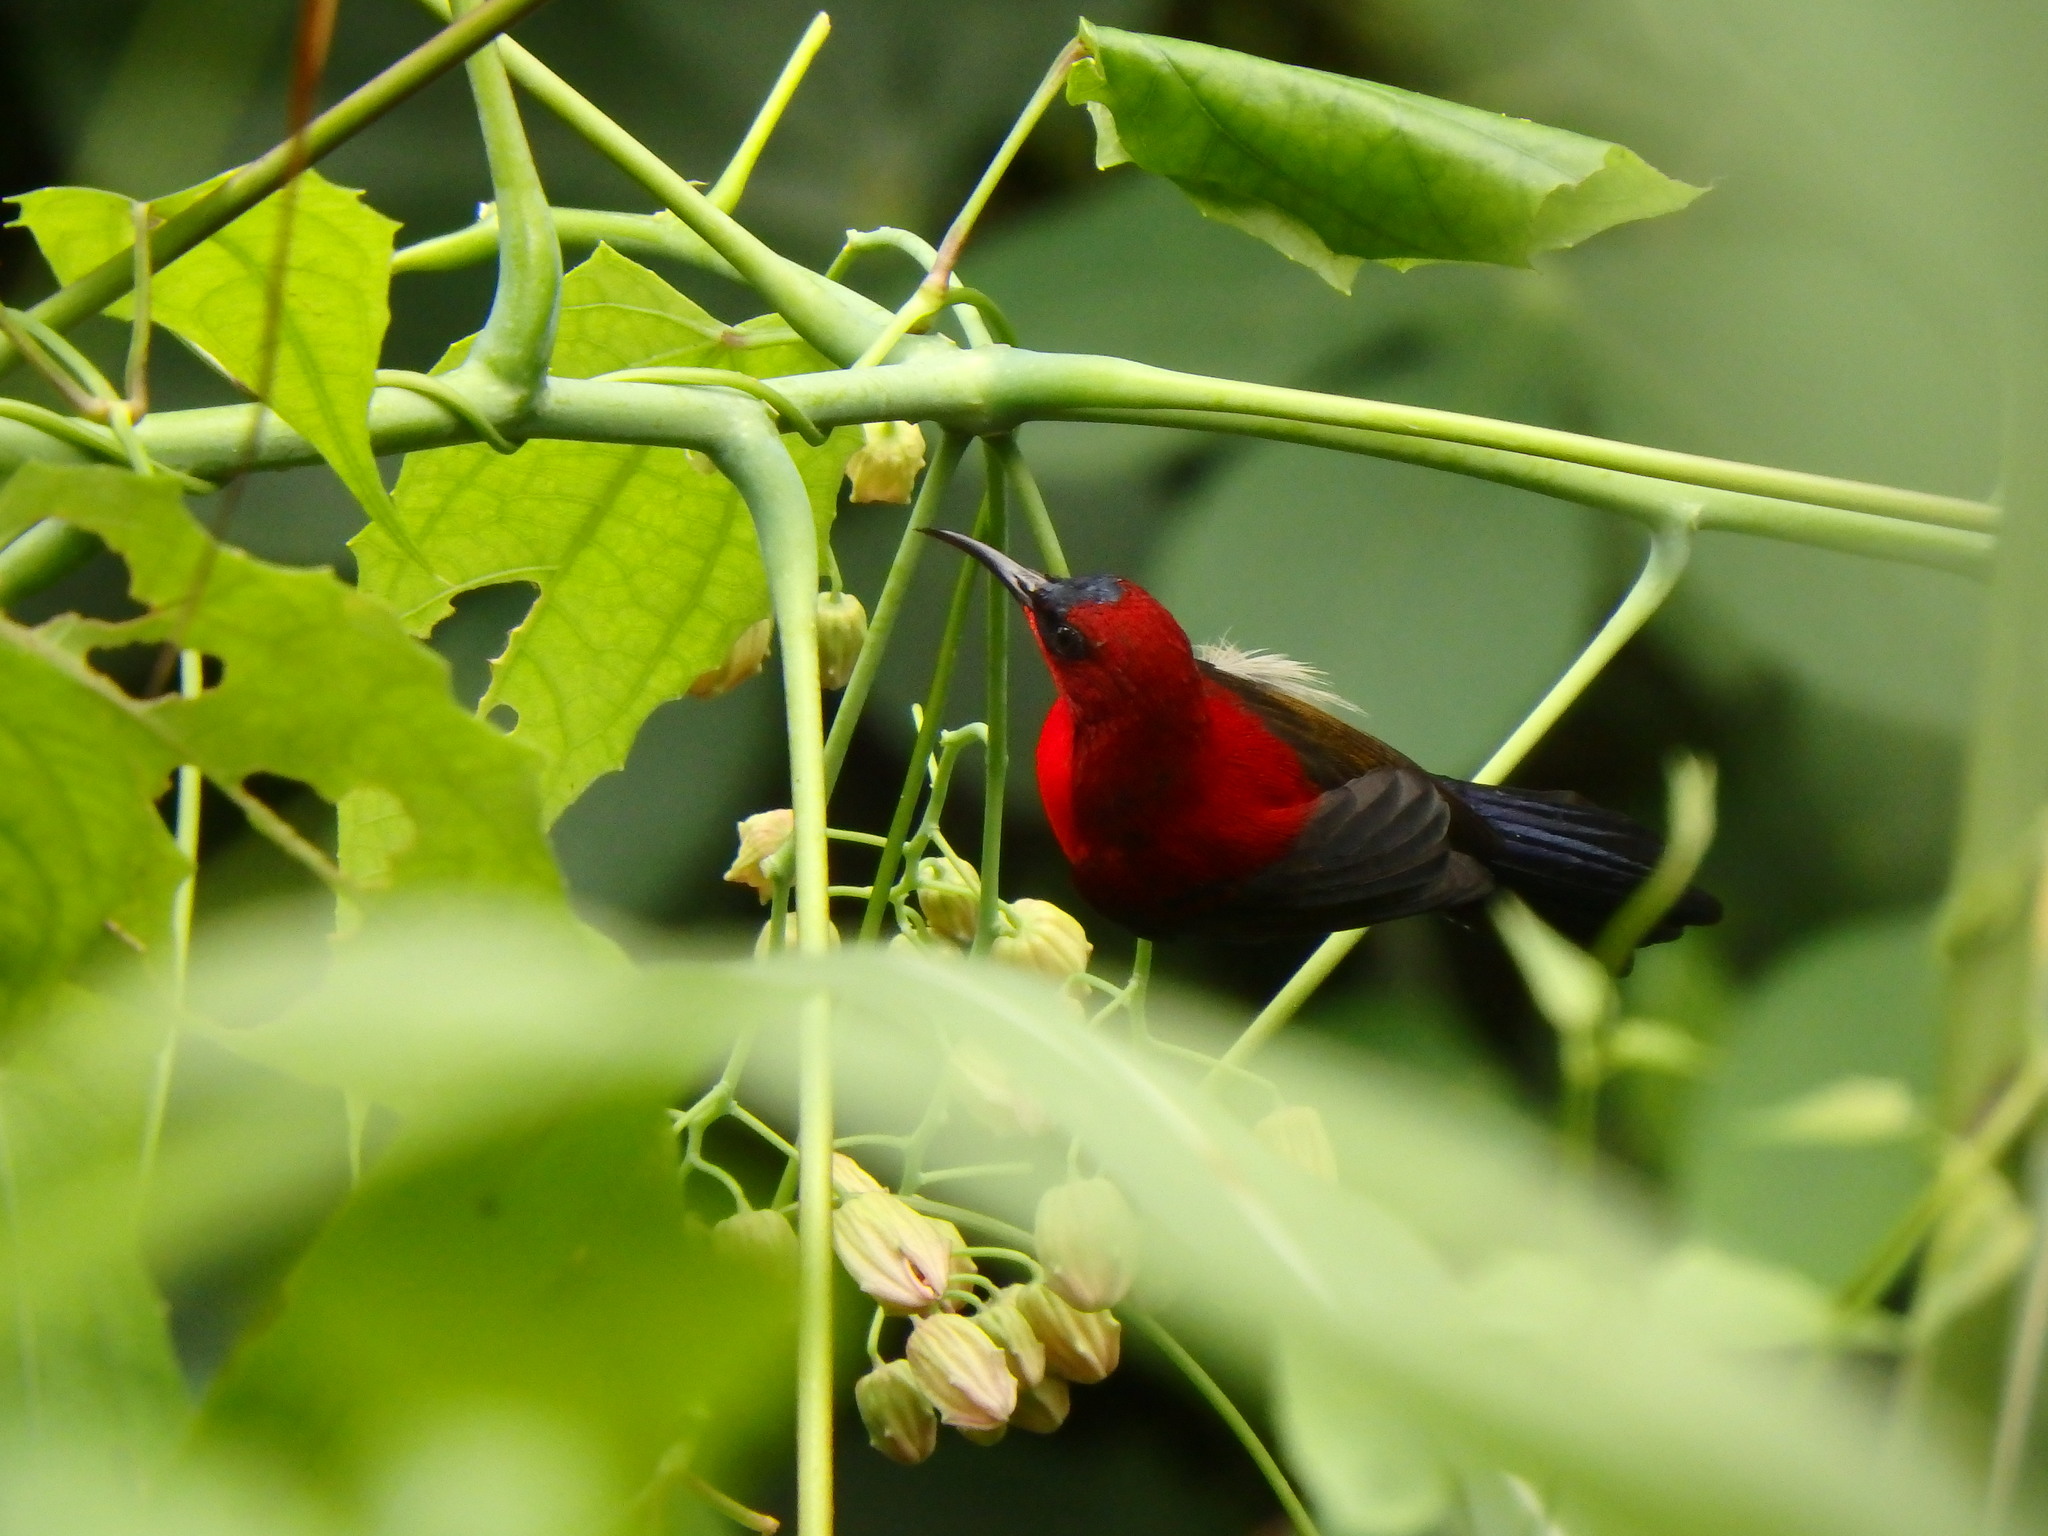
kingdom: Animalia
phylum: Chordata
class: Aves
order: Passeriformes
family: Nectariniidae
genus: Aethopyga
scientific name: Aethopyga siparaja
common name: Crimson sunbird
